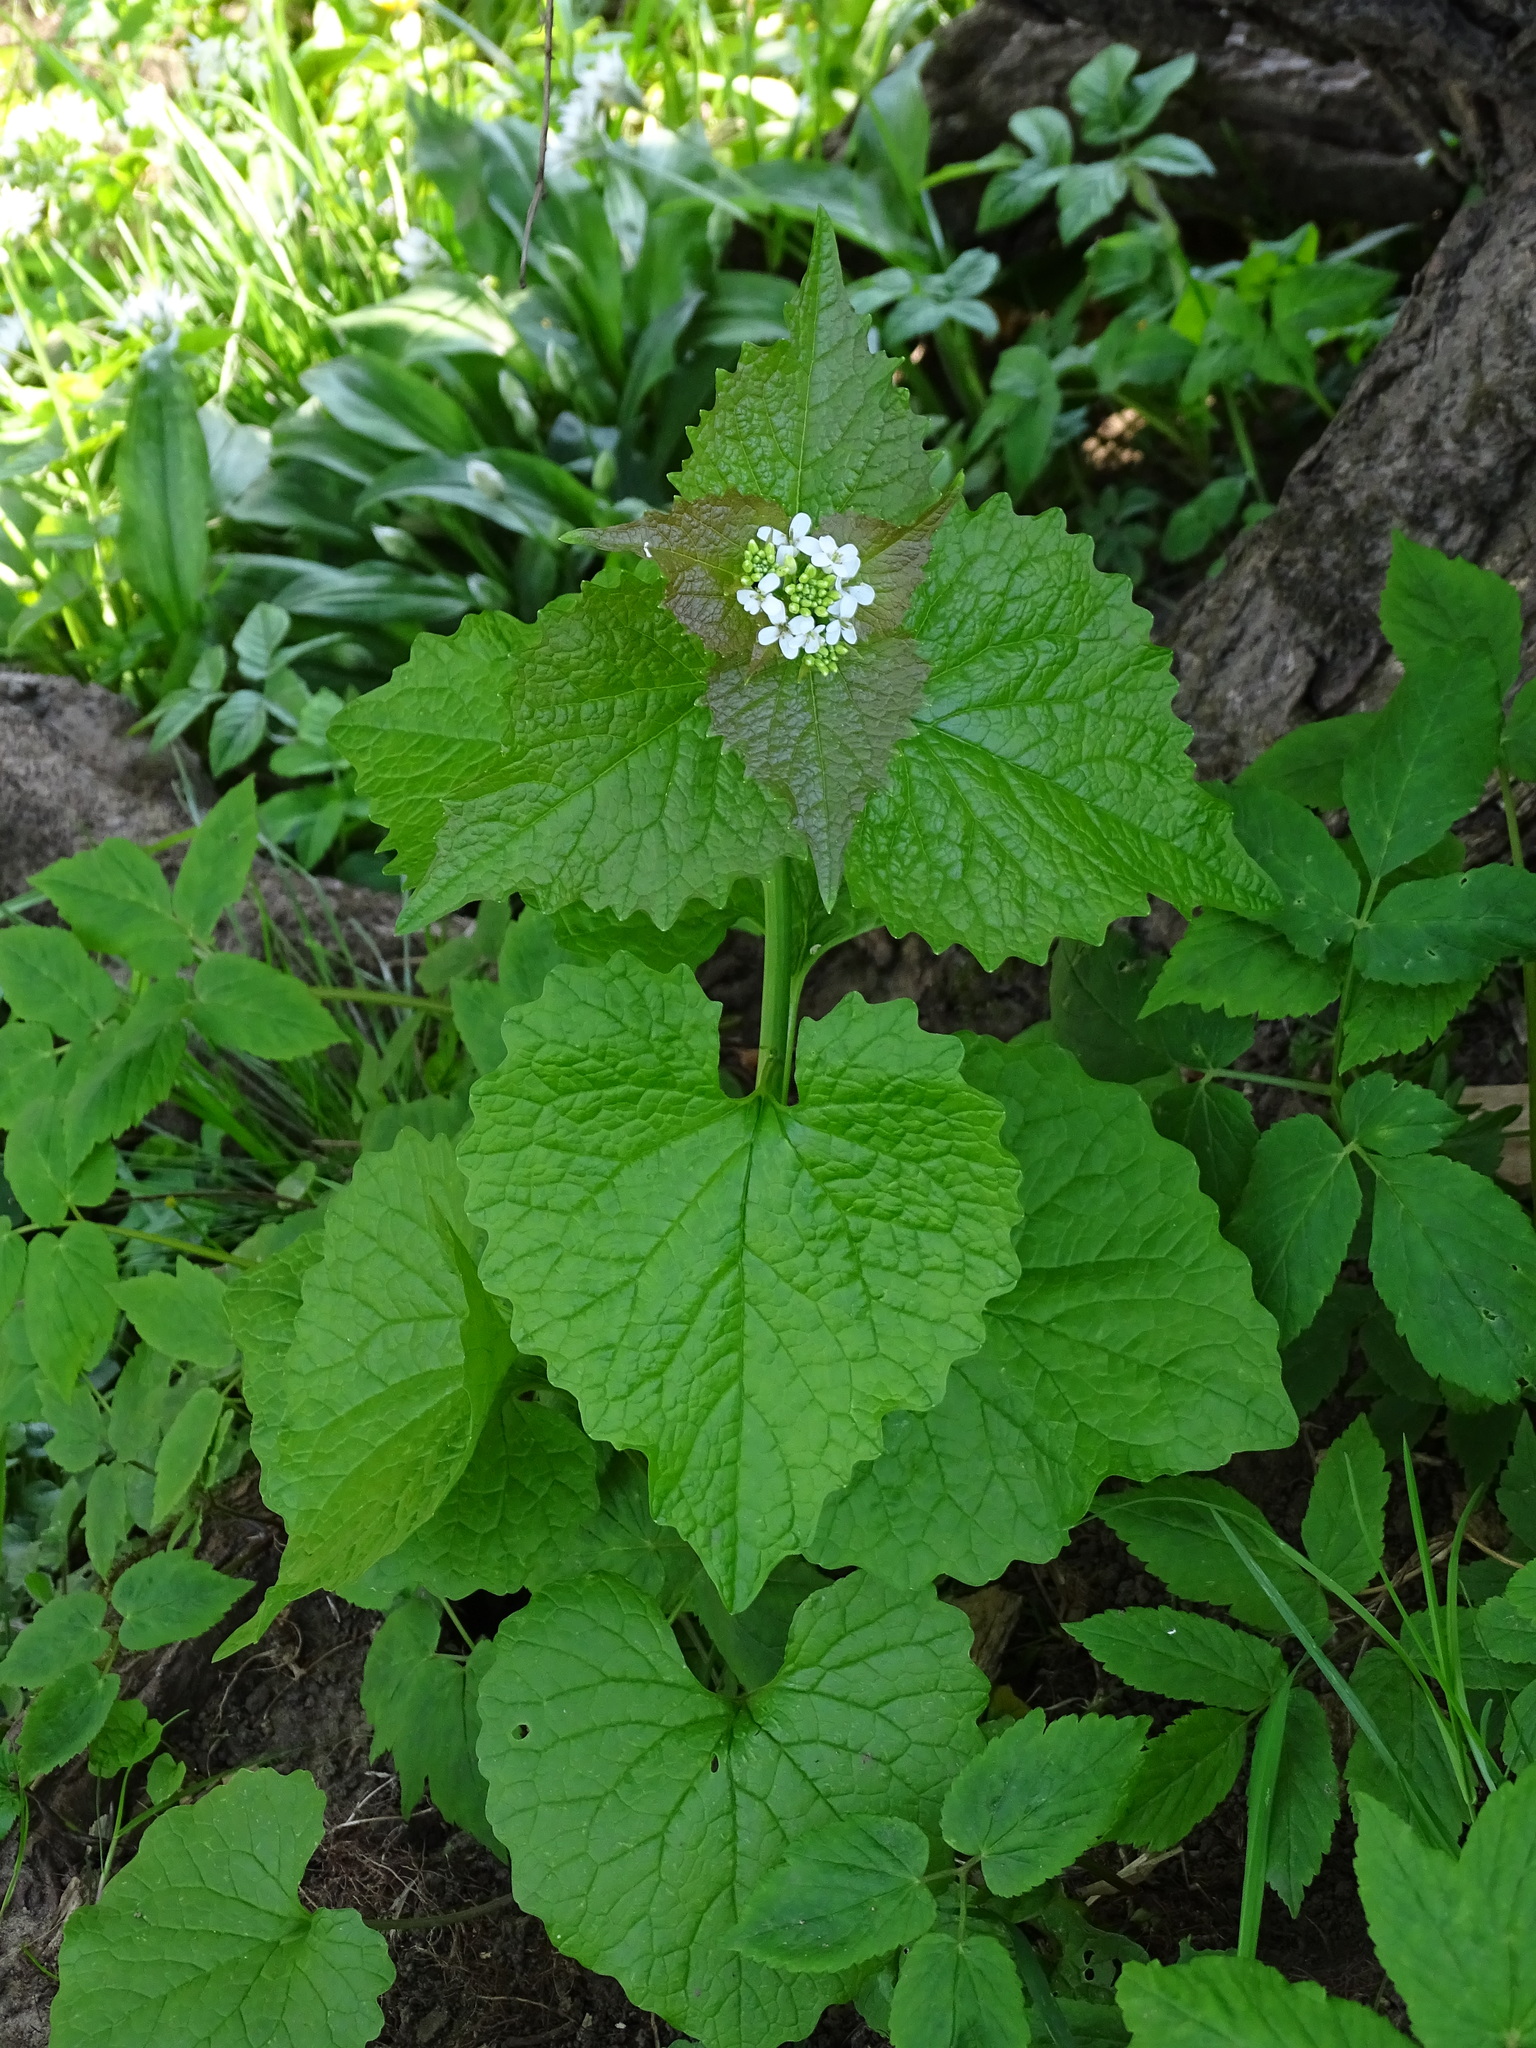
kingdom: Plantae
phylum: Tracheophyta
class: Magnoliopsida
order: Brassicales
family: Brassicaceae
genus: Alliaria
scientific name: Alliaria petiolata
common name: Garlic mustard
